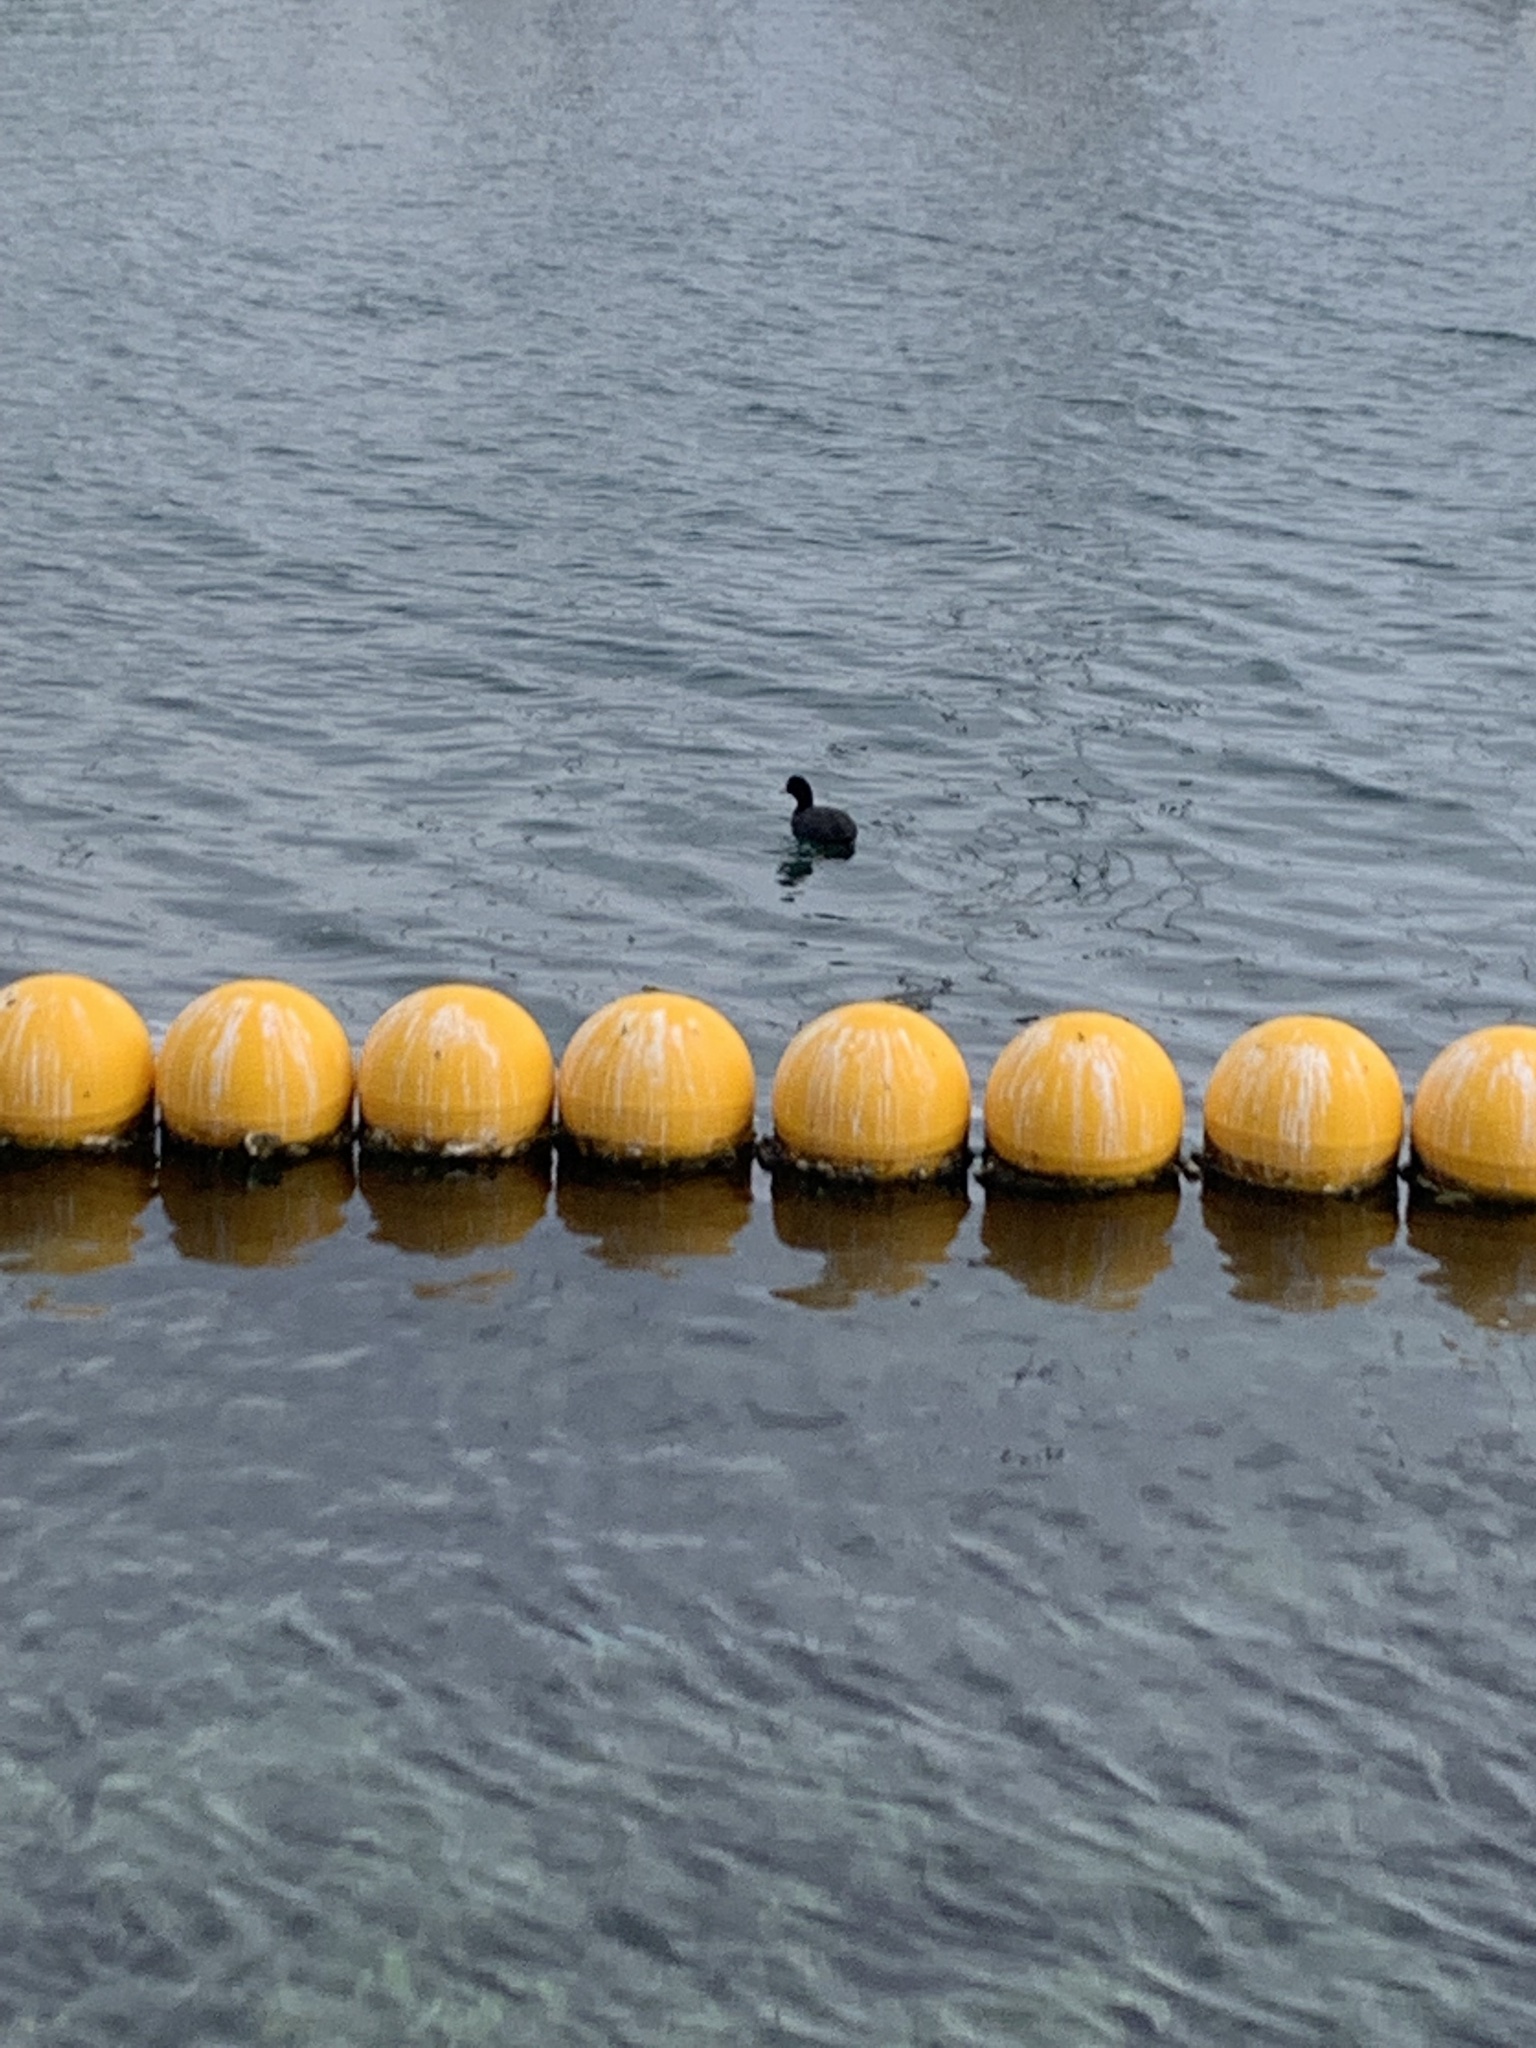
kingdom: Animalia
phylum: Chordata
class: Aves
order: Gruiformes
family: Rallidae
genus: Fulica
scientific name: Fulica atra
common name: Eurasian coot
